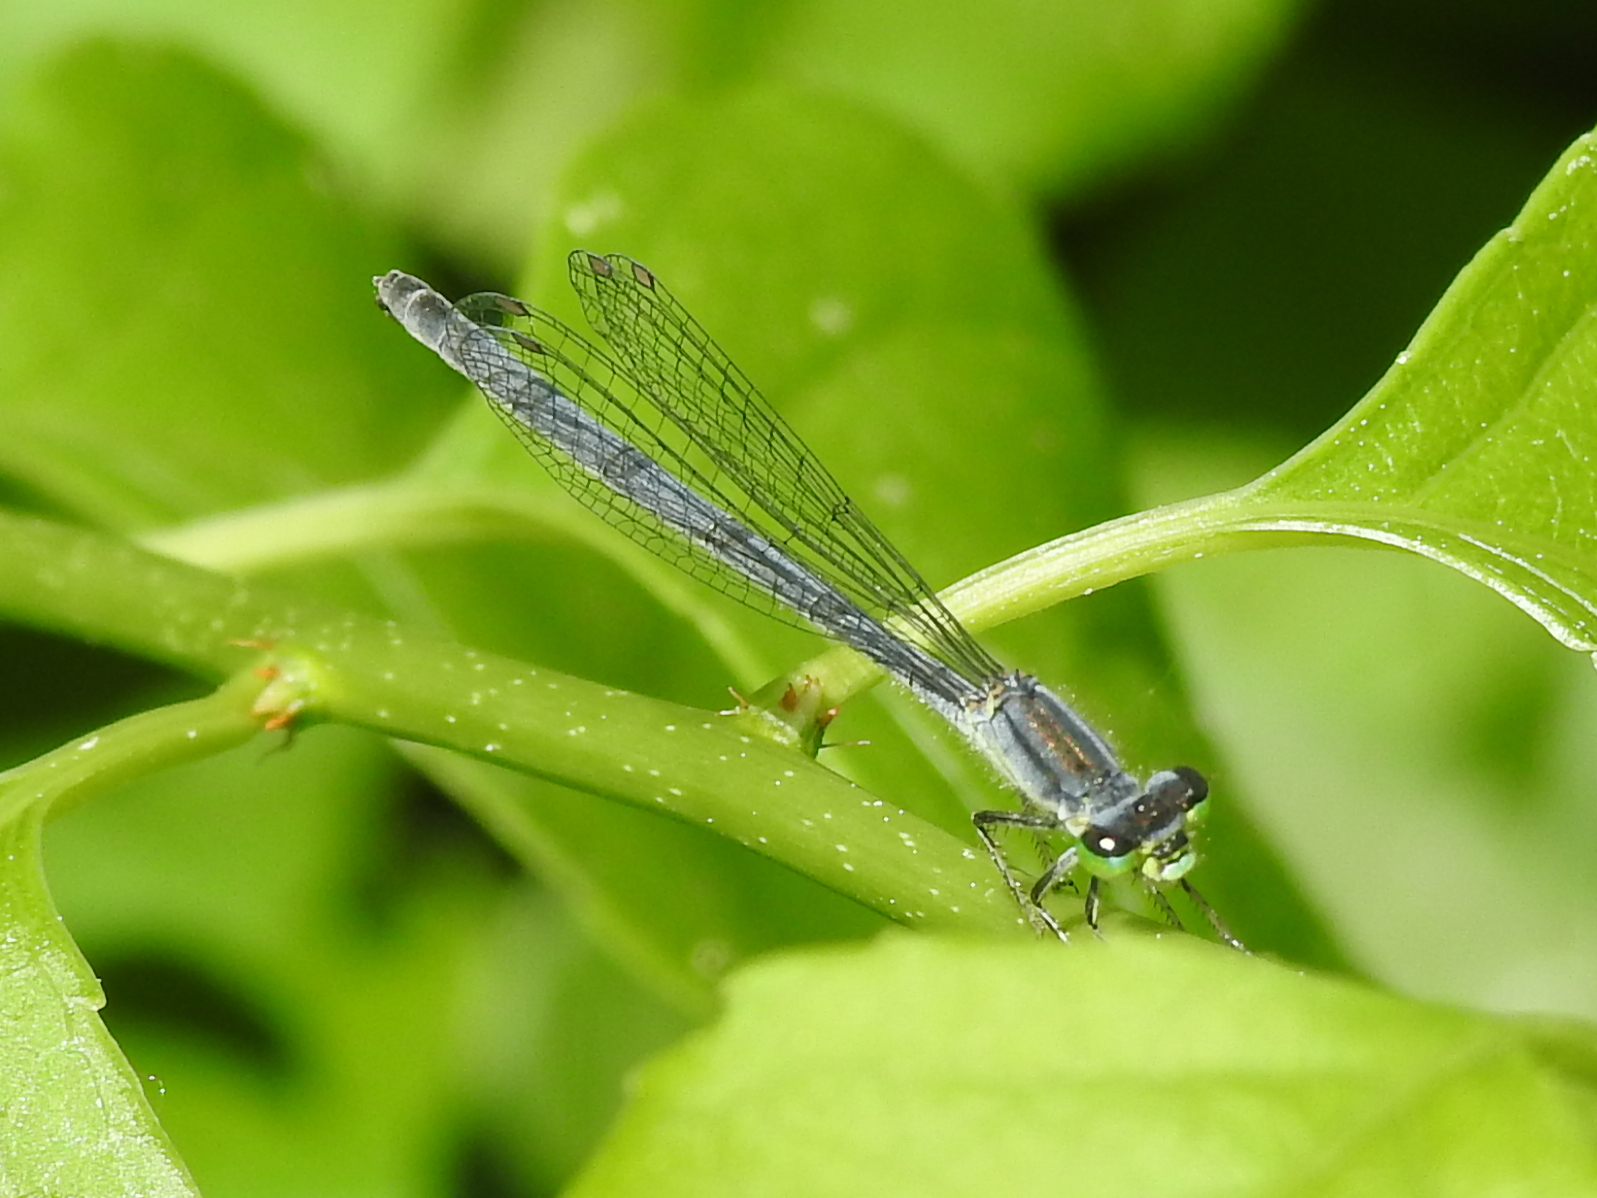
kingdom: Animalia
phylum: Arthropoda
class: Insecta
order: Odonata
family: Coenagrionidae
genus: Ischnura
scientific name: Ischnura verticalis
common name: Eastern forktail
